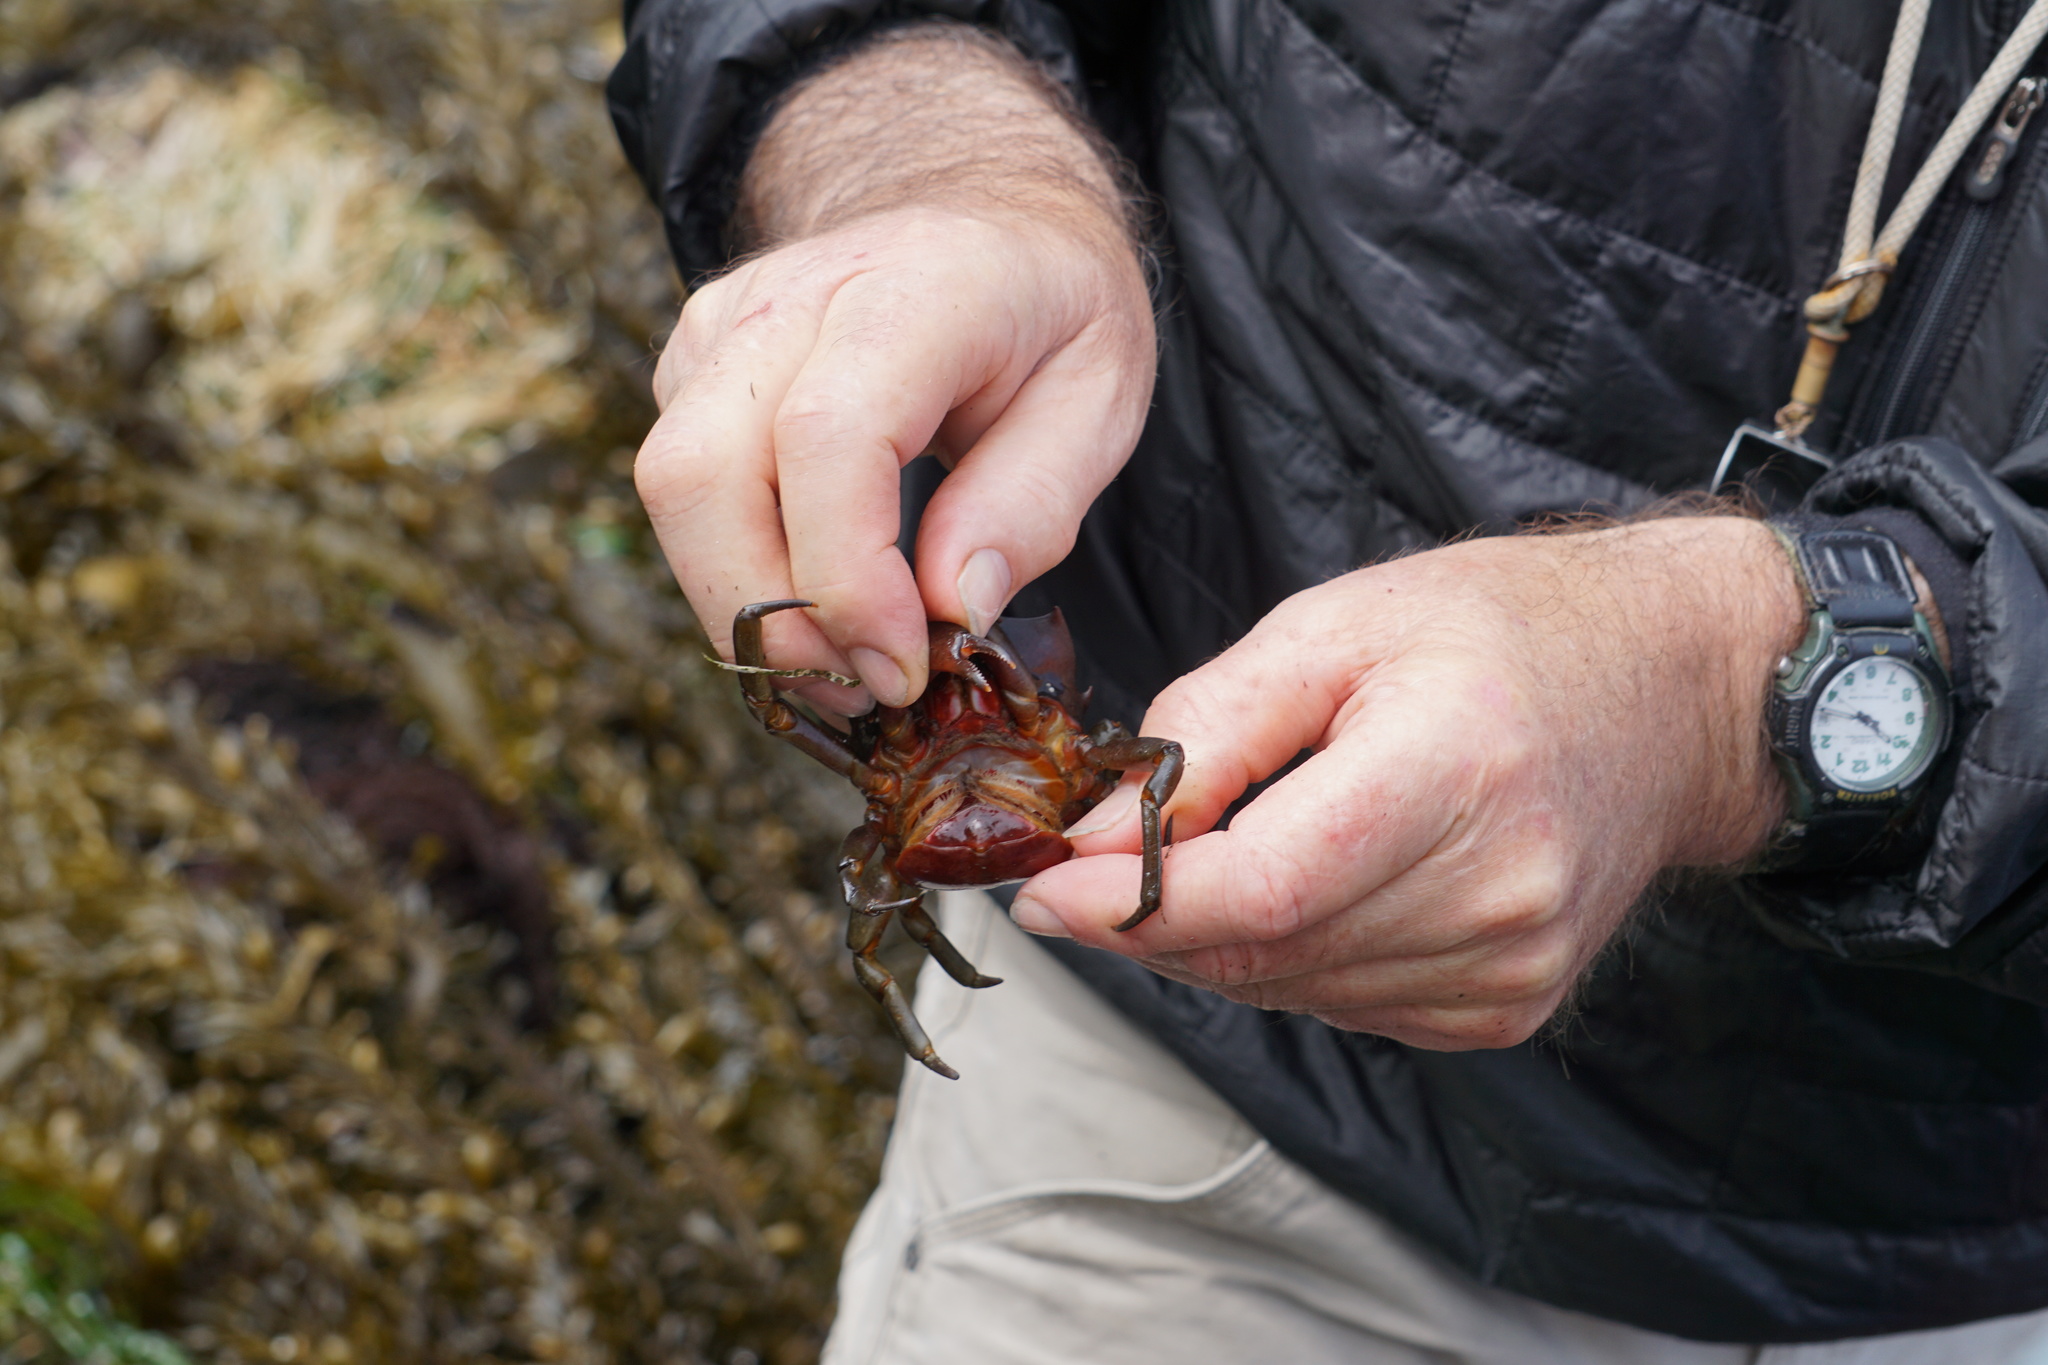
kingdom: Animalia
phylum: Arthropoda
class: Malacostraca
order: Decapoda
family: Epialtidae
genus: Pugettia
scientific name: Pugettia producta
